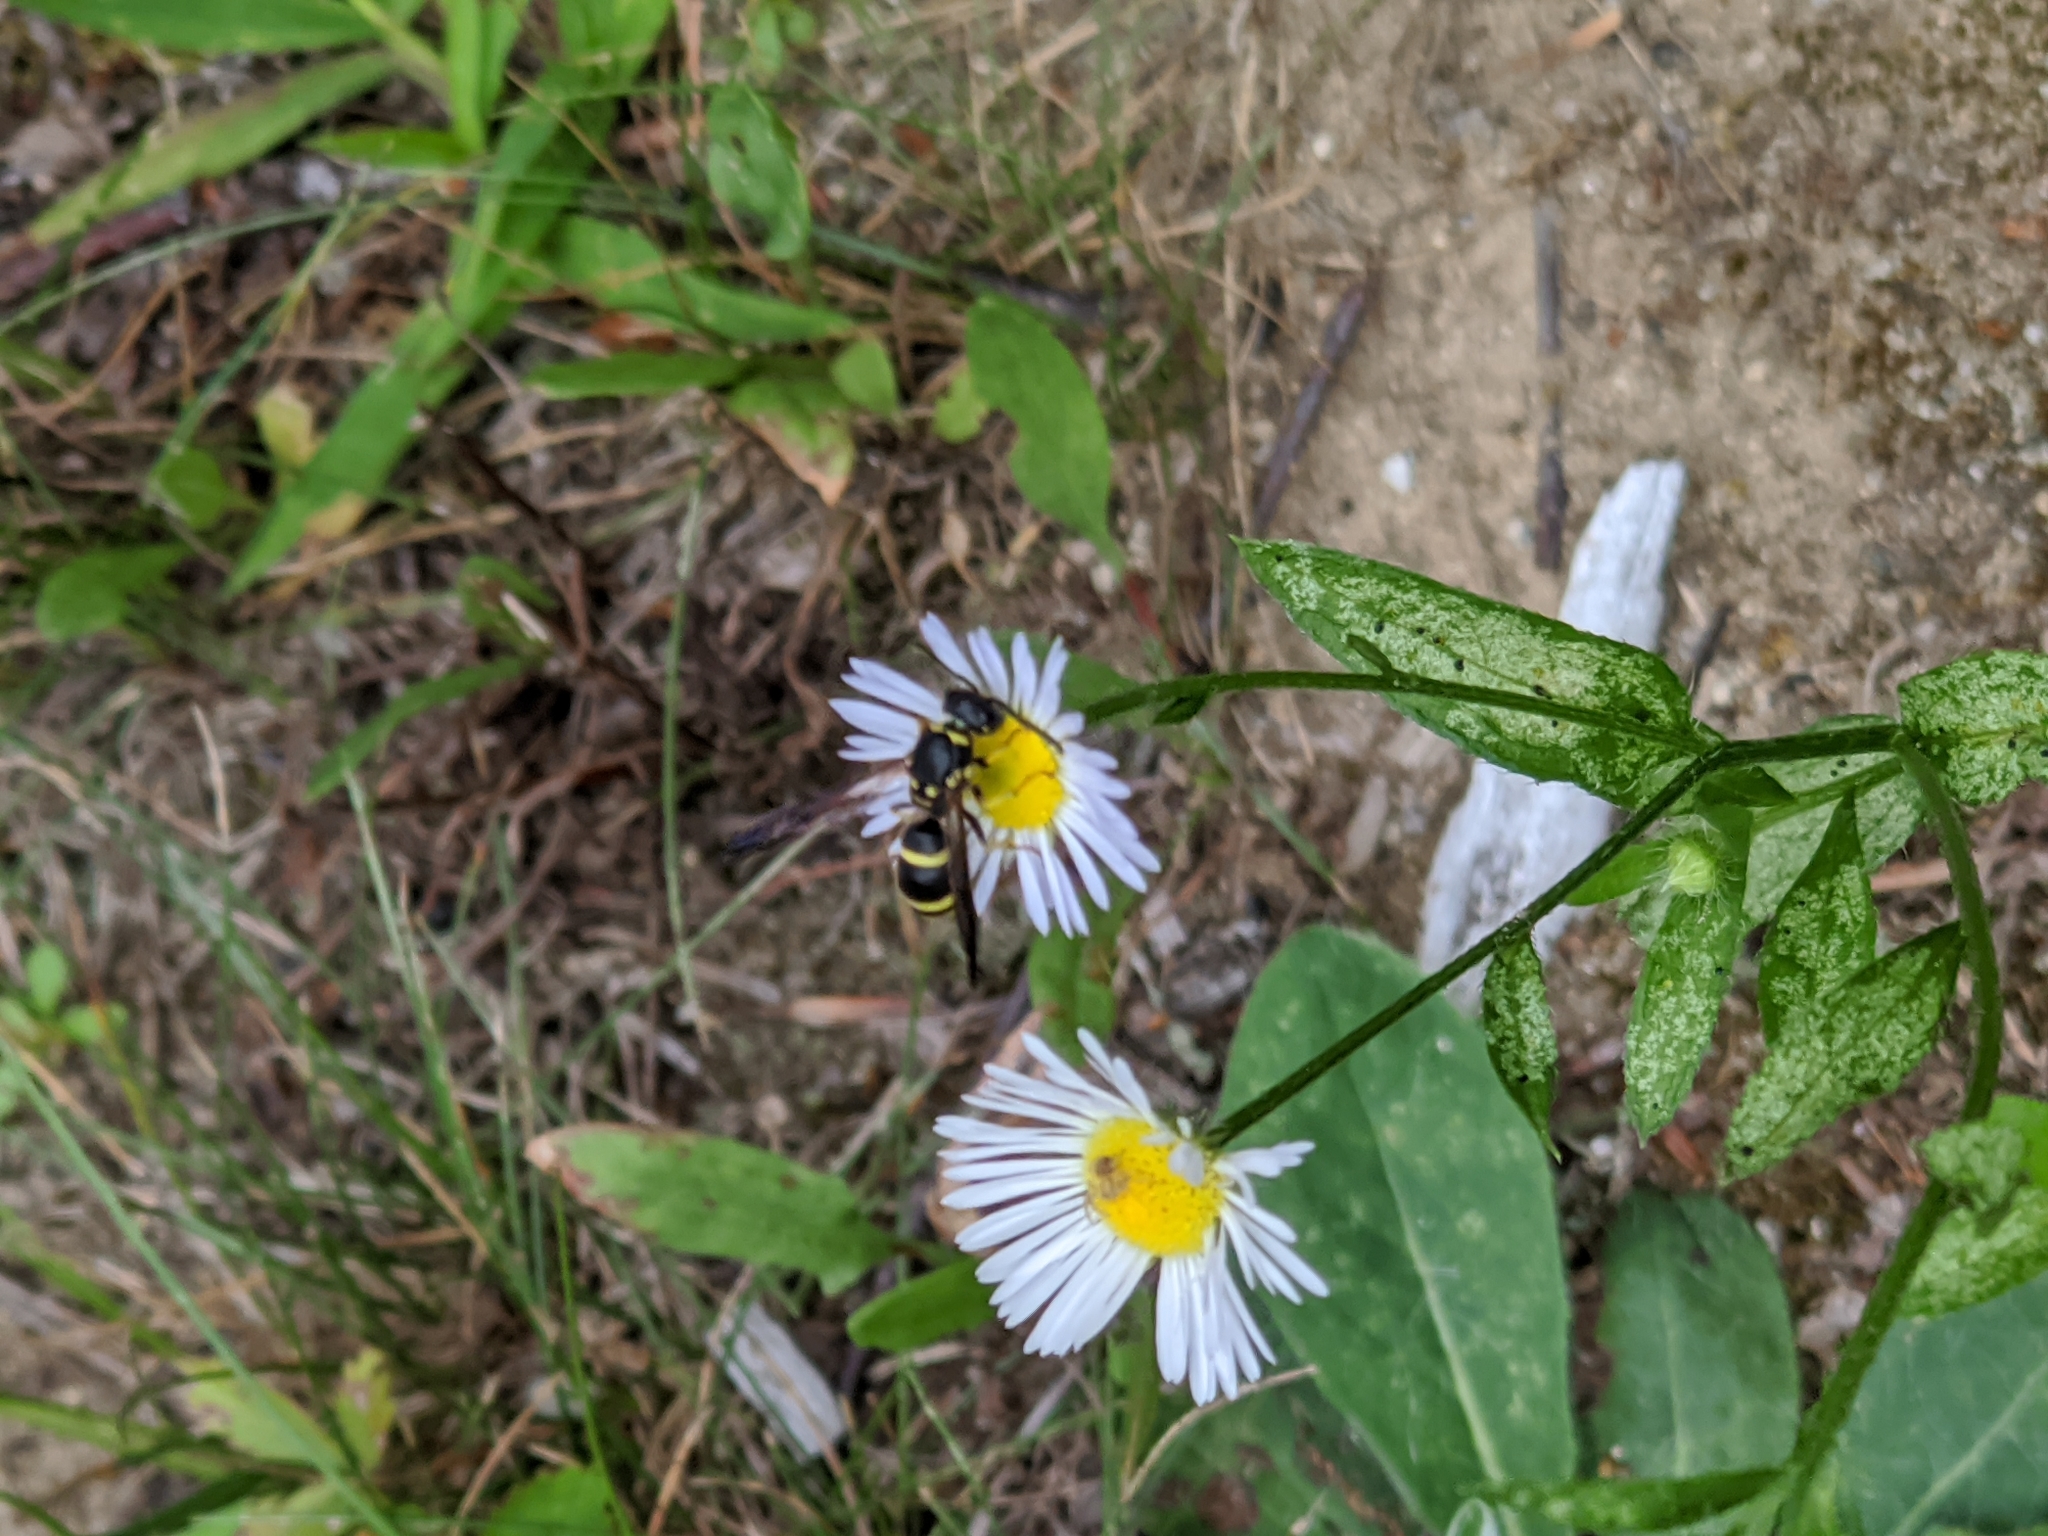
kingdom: Animalia
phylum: Arthropoda
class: Insecta
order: Hymenoptera
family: Vespidae
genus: Ancistrocerus
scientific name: Ancistrocerus adiabatus
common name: Bramble mason wasp
